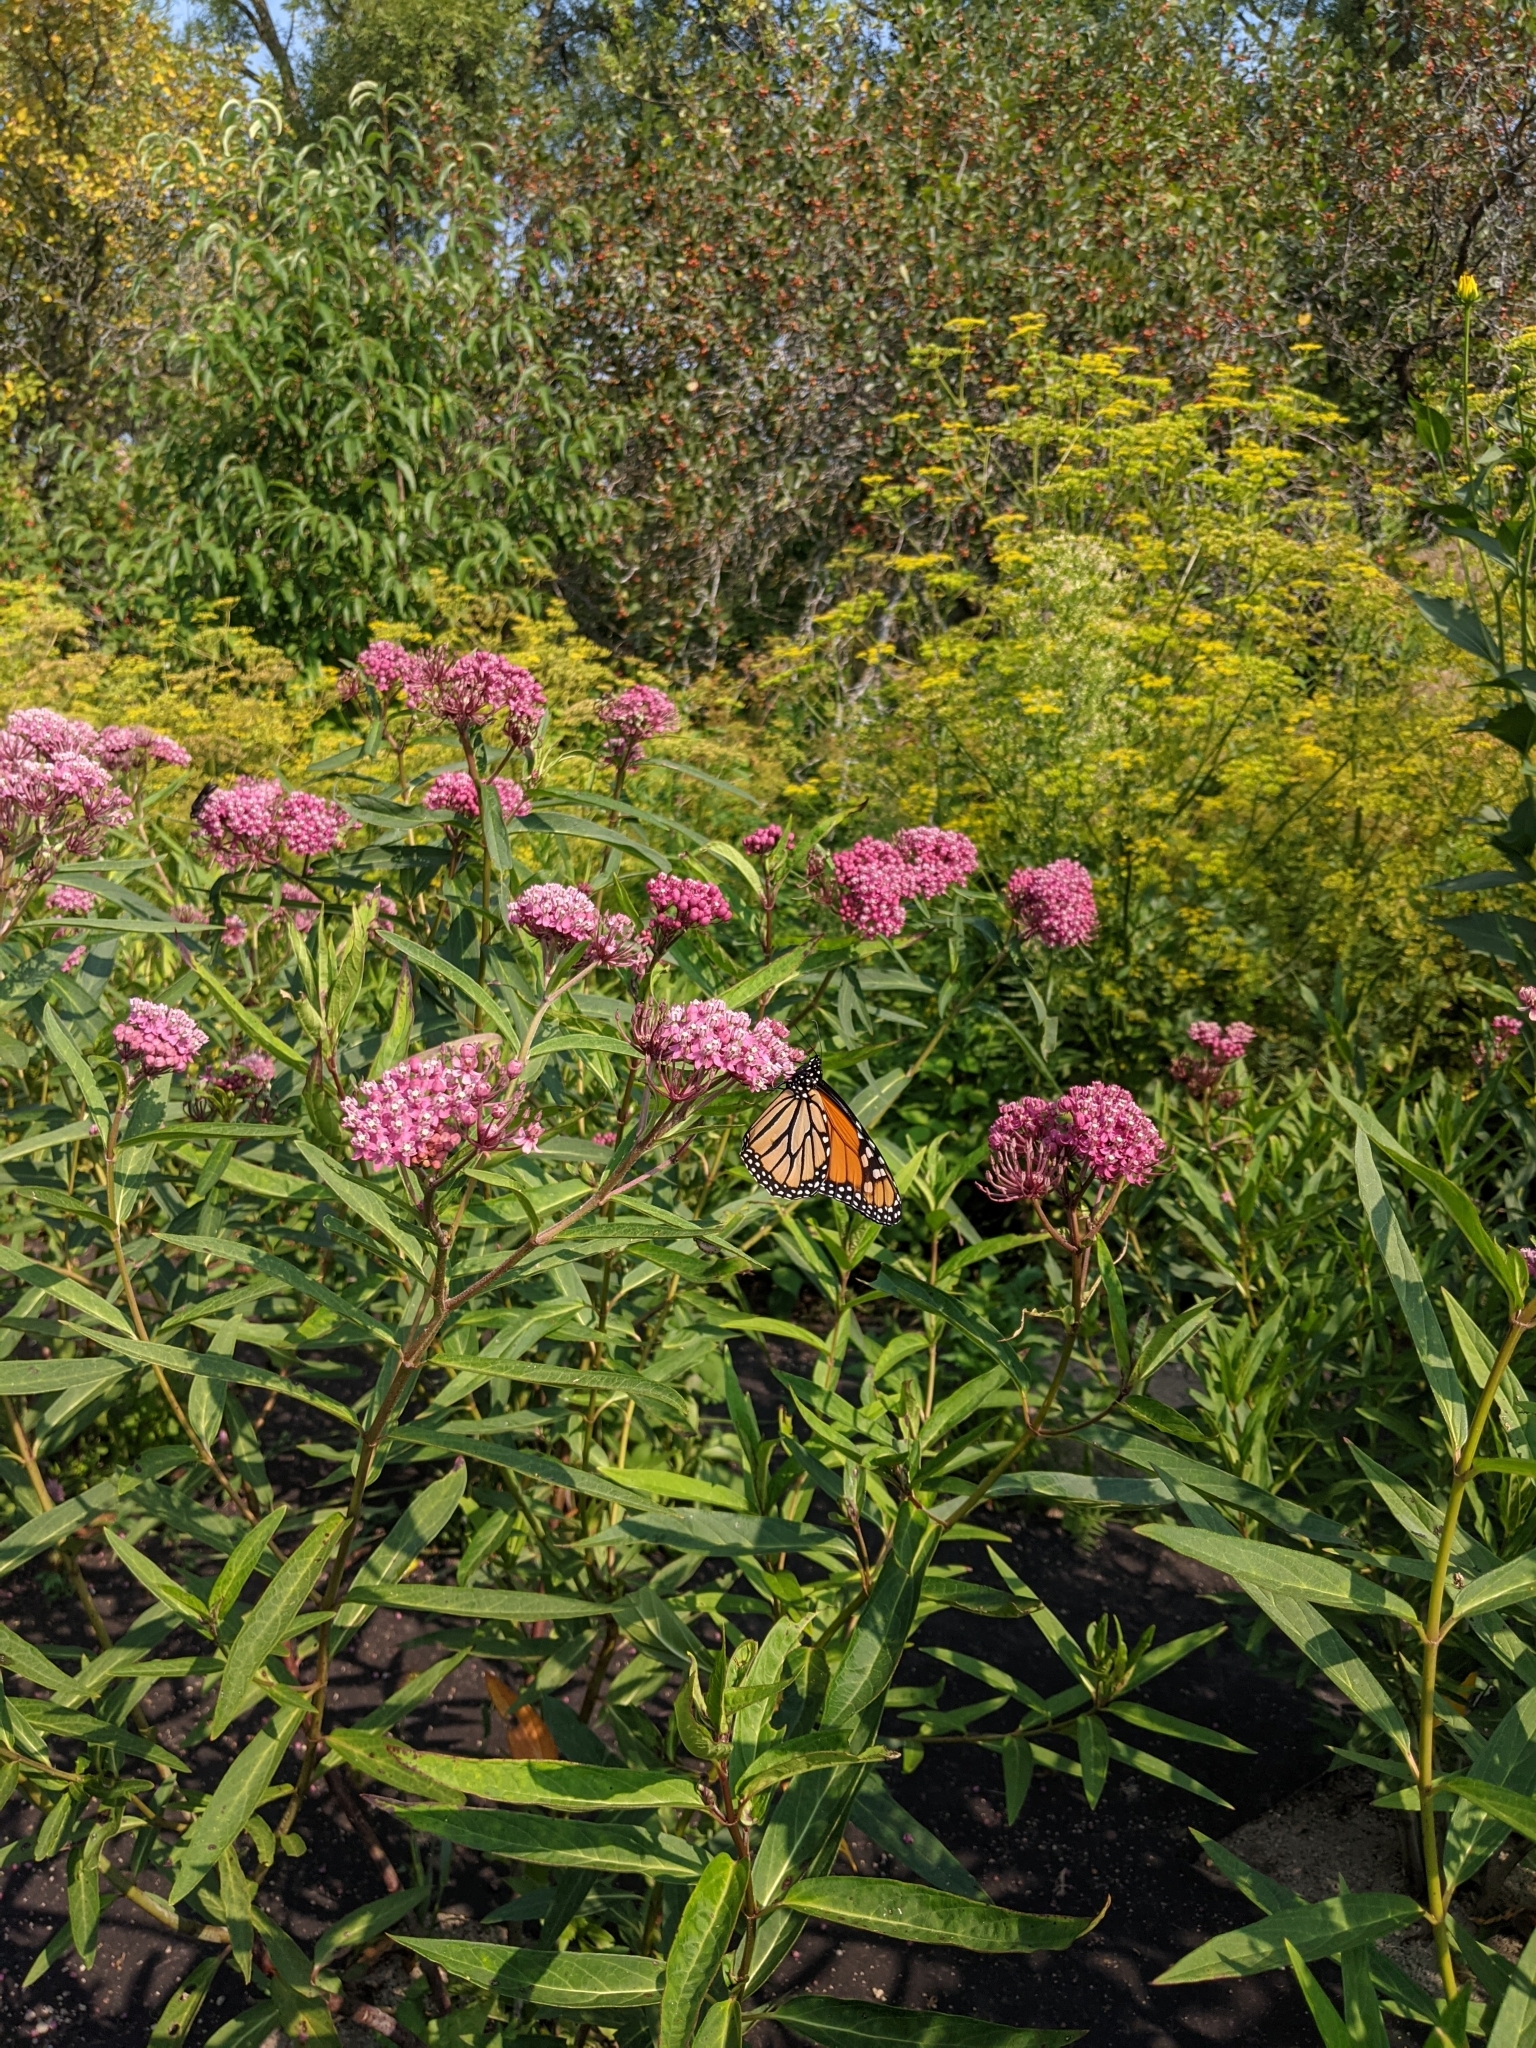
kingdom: Animalia
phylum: Arthropoda
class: Insecta
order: Lepidoptera
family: Nymphalidae
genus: Danaus
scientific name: Danaus plexippus
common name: Monarch
